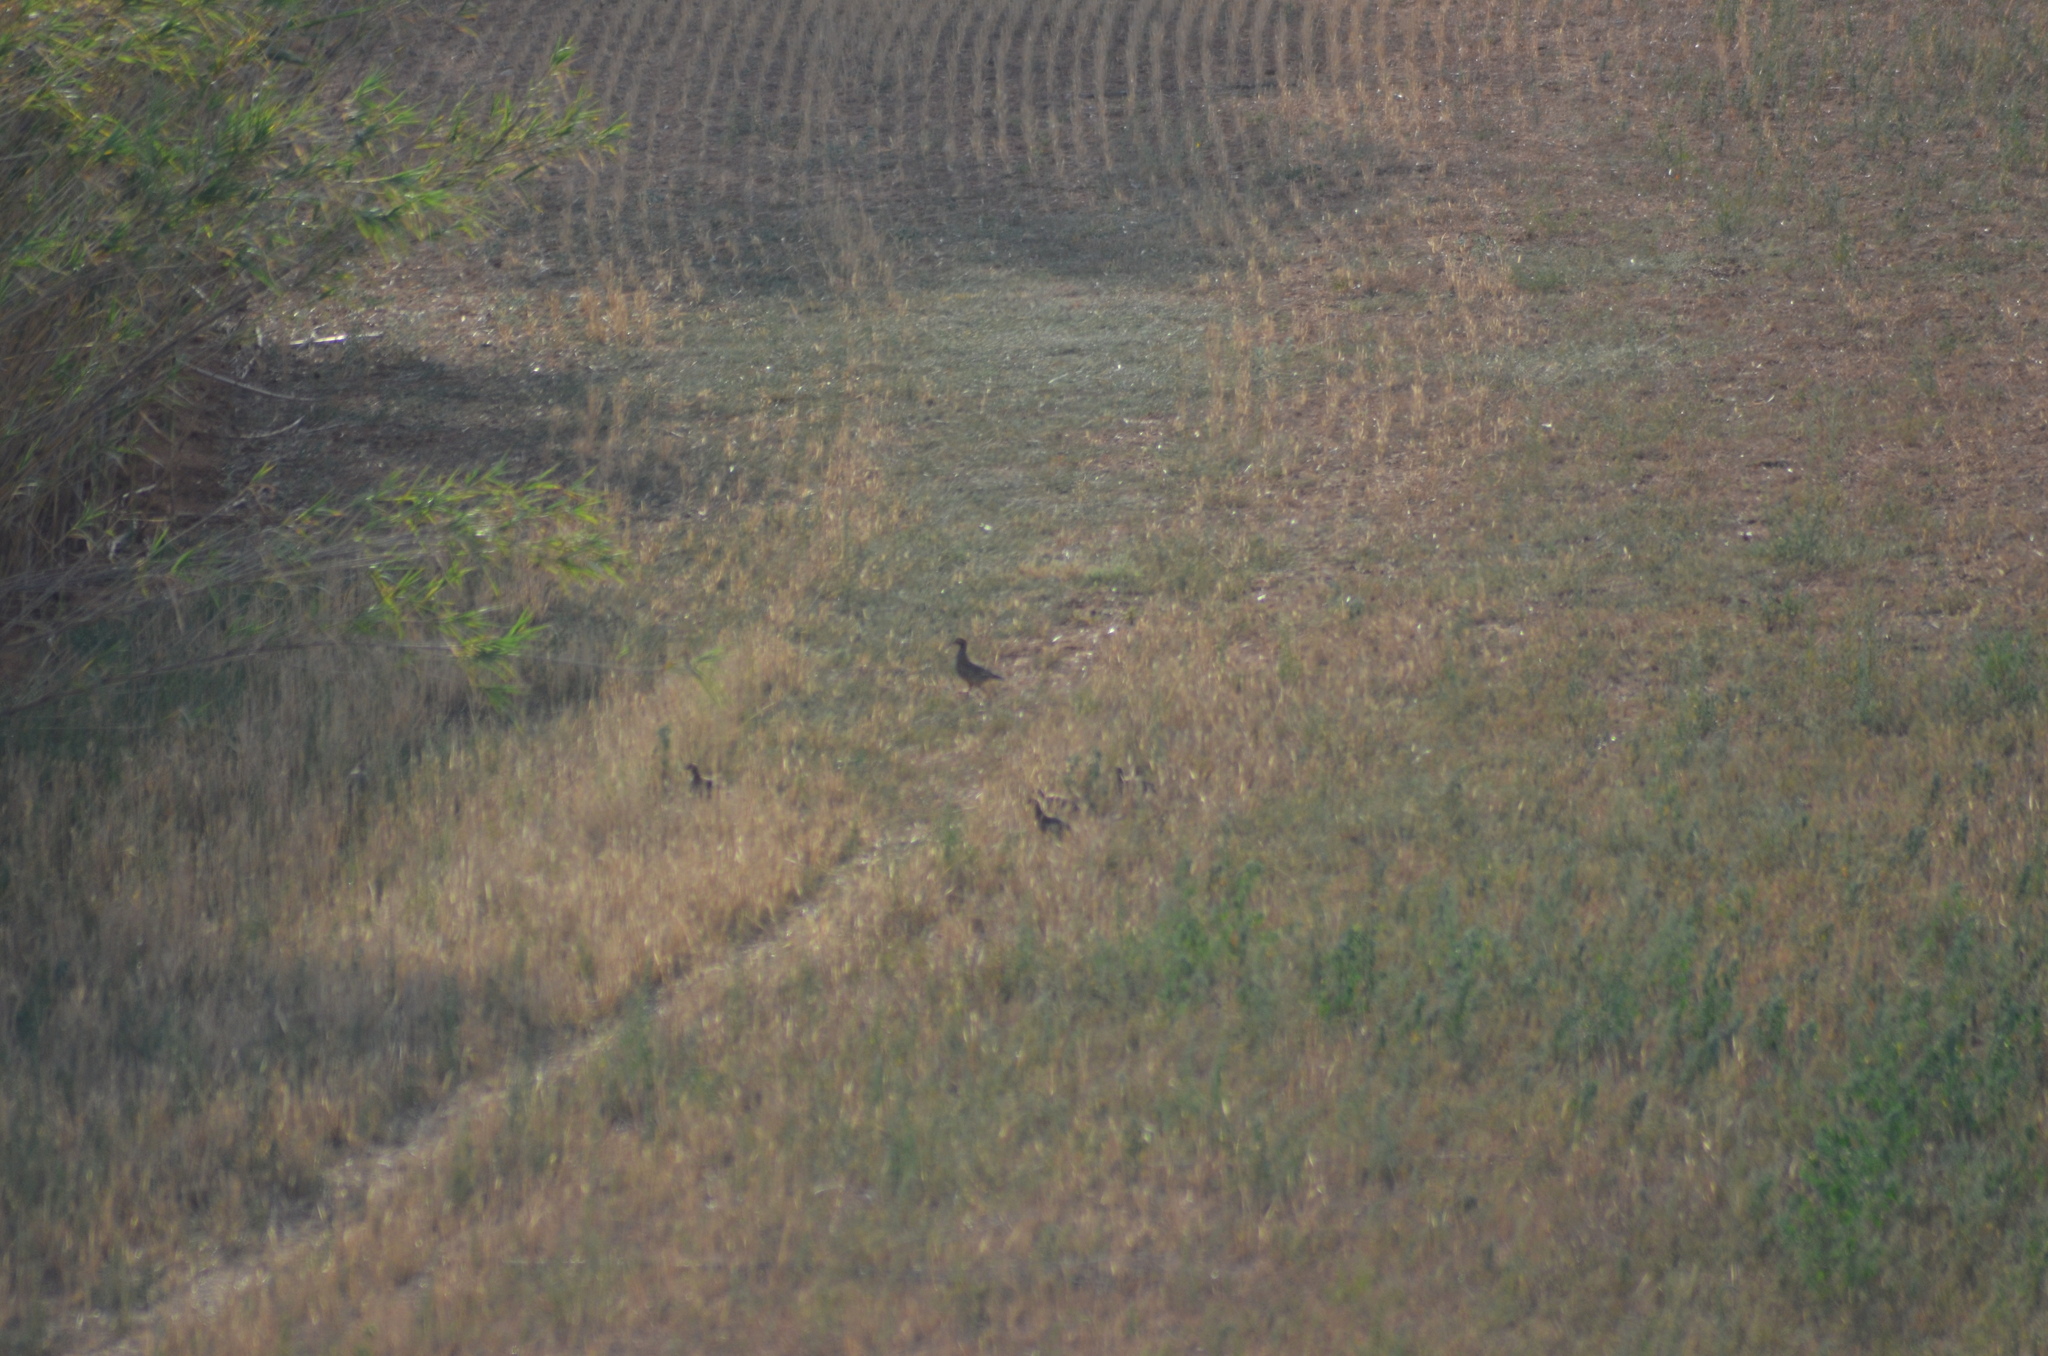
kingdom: Animalia
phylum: Chordata
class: Aves
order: Galliformes
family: Phasianidae
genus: Alectoris
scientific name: Alectoris rufa
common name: Red-legged partridge
